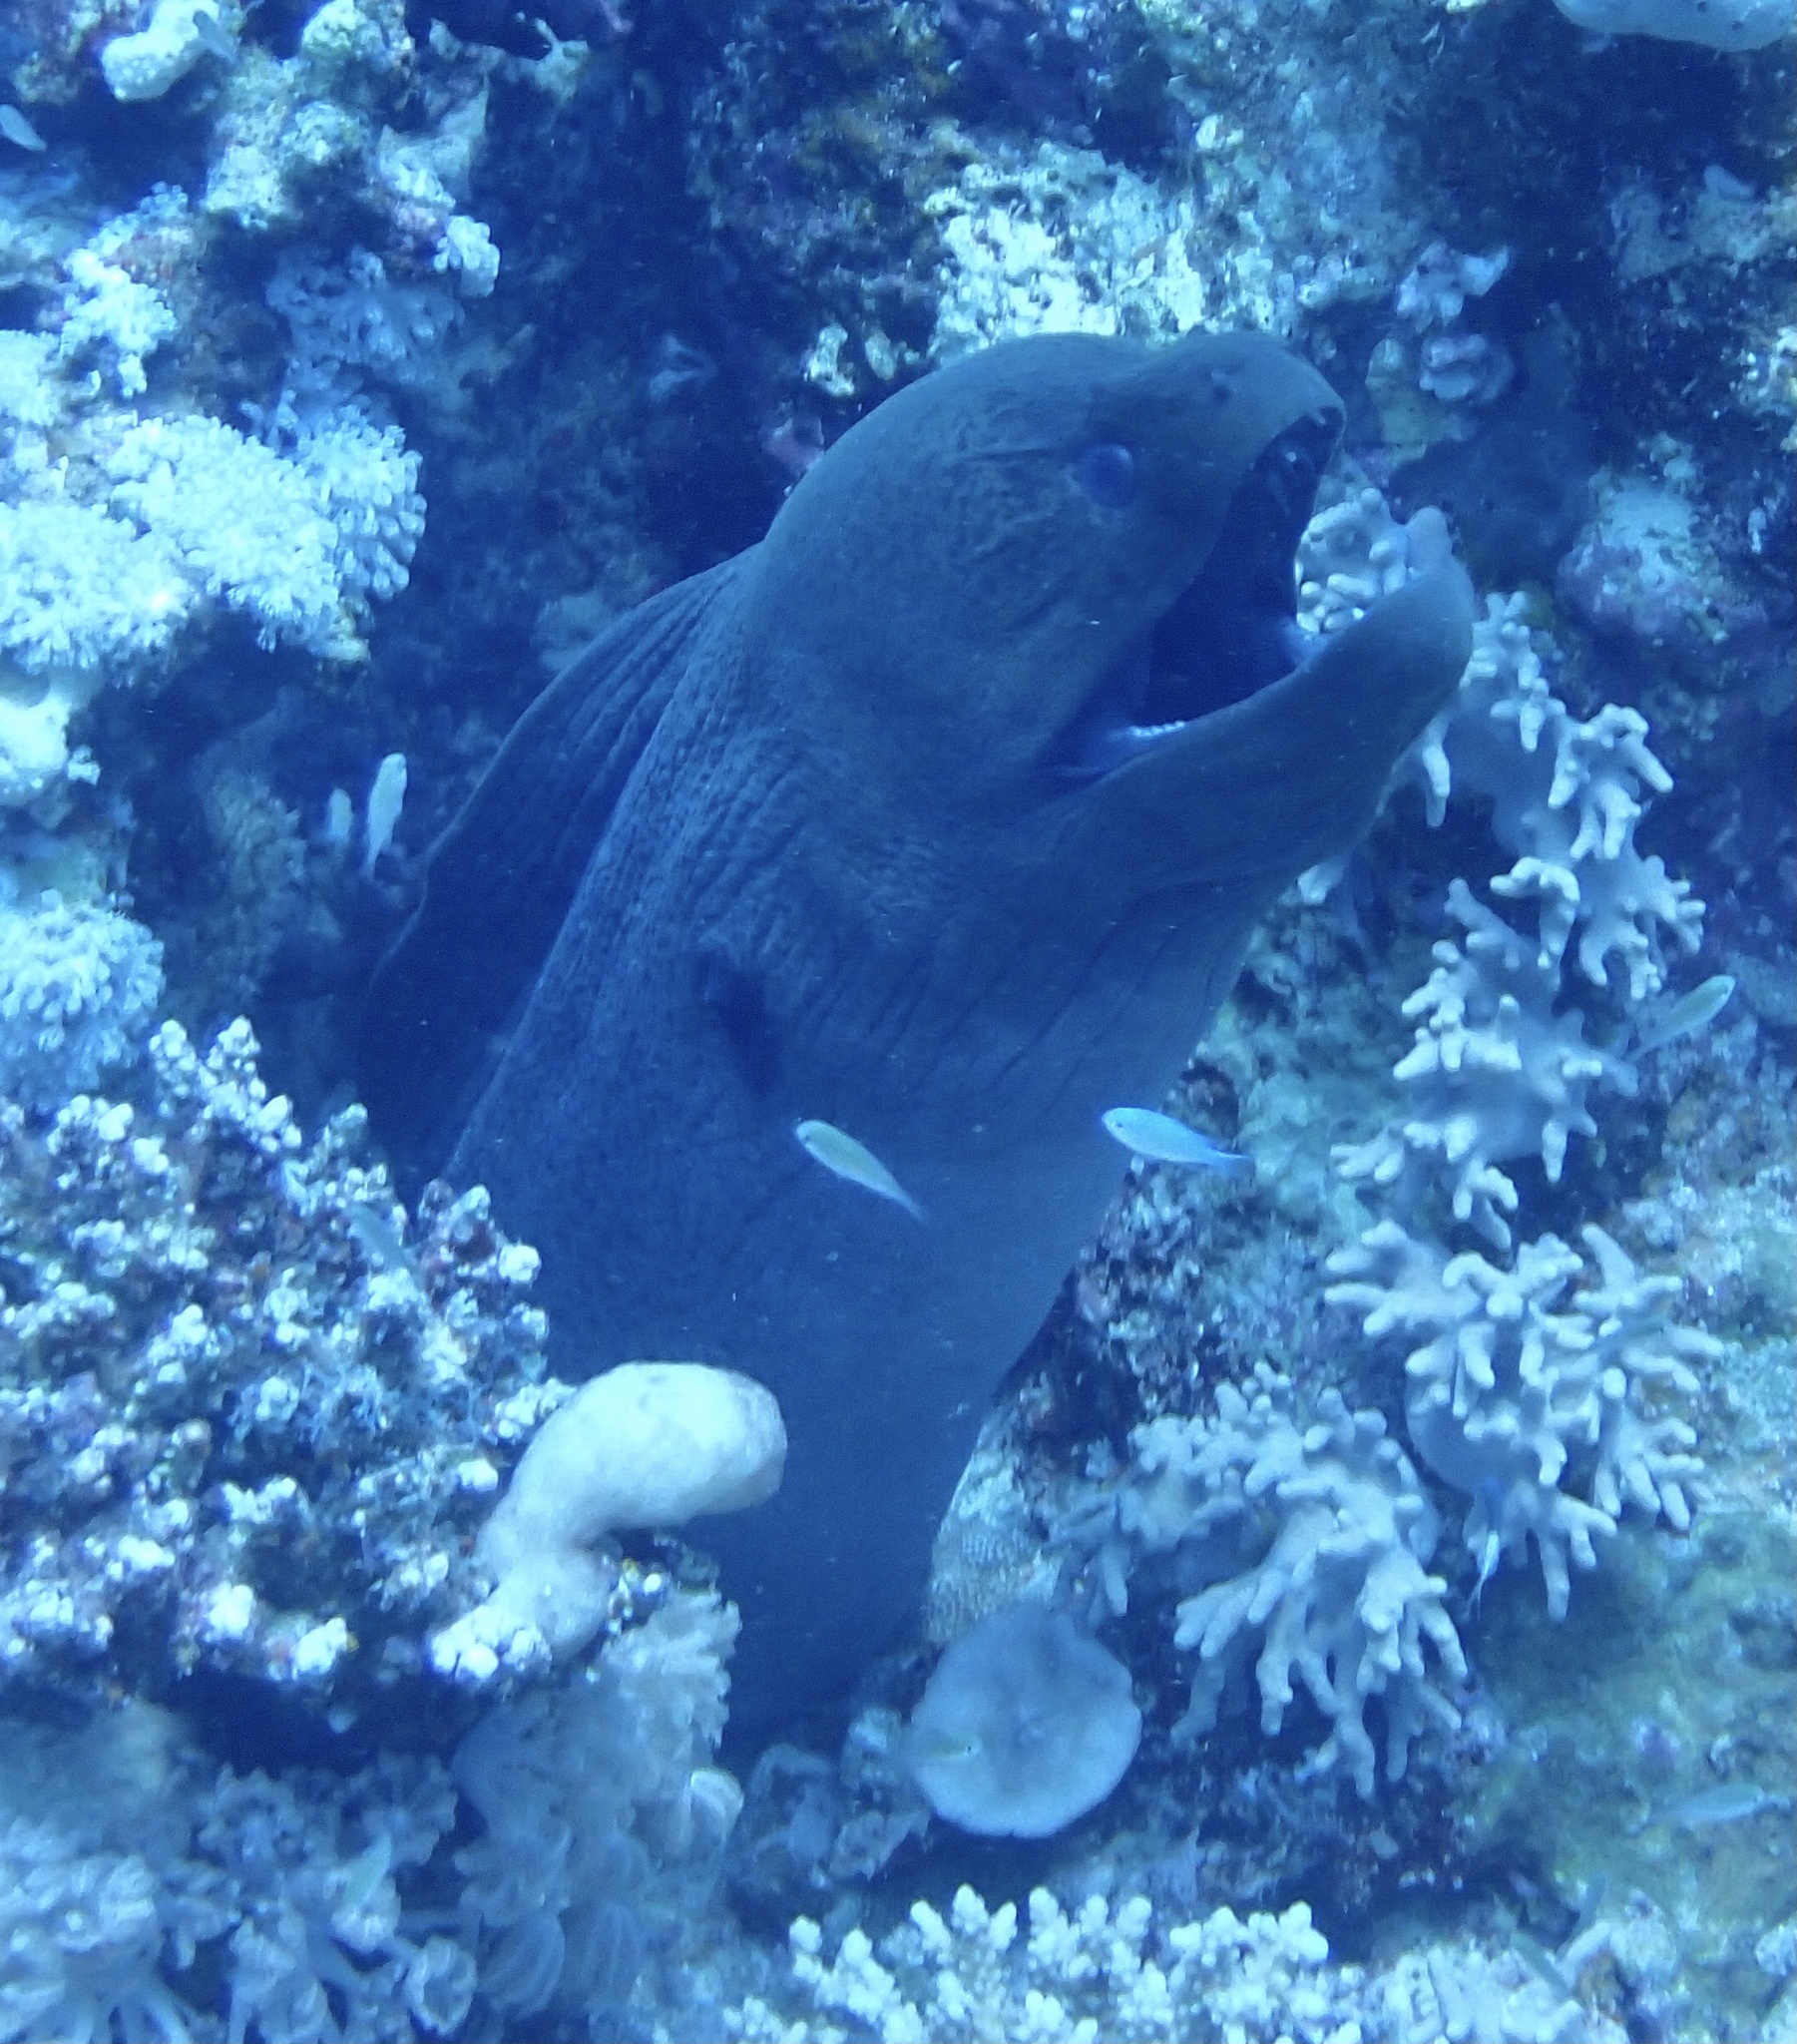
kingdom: Animalia
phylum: Chordata
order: Anguilliformes
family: Muraenidae
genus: Gymnothorax
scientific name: Gymnothorax javanicus
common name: Giant moray
